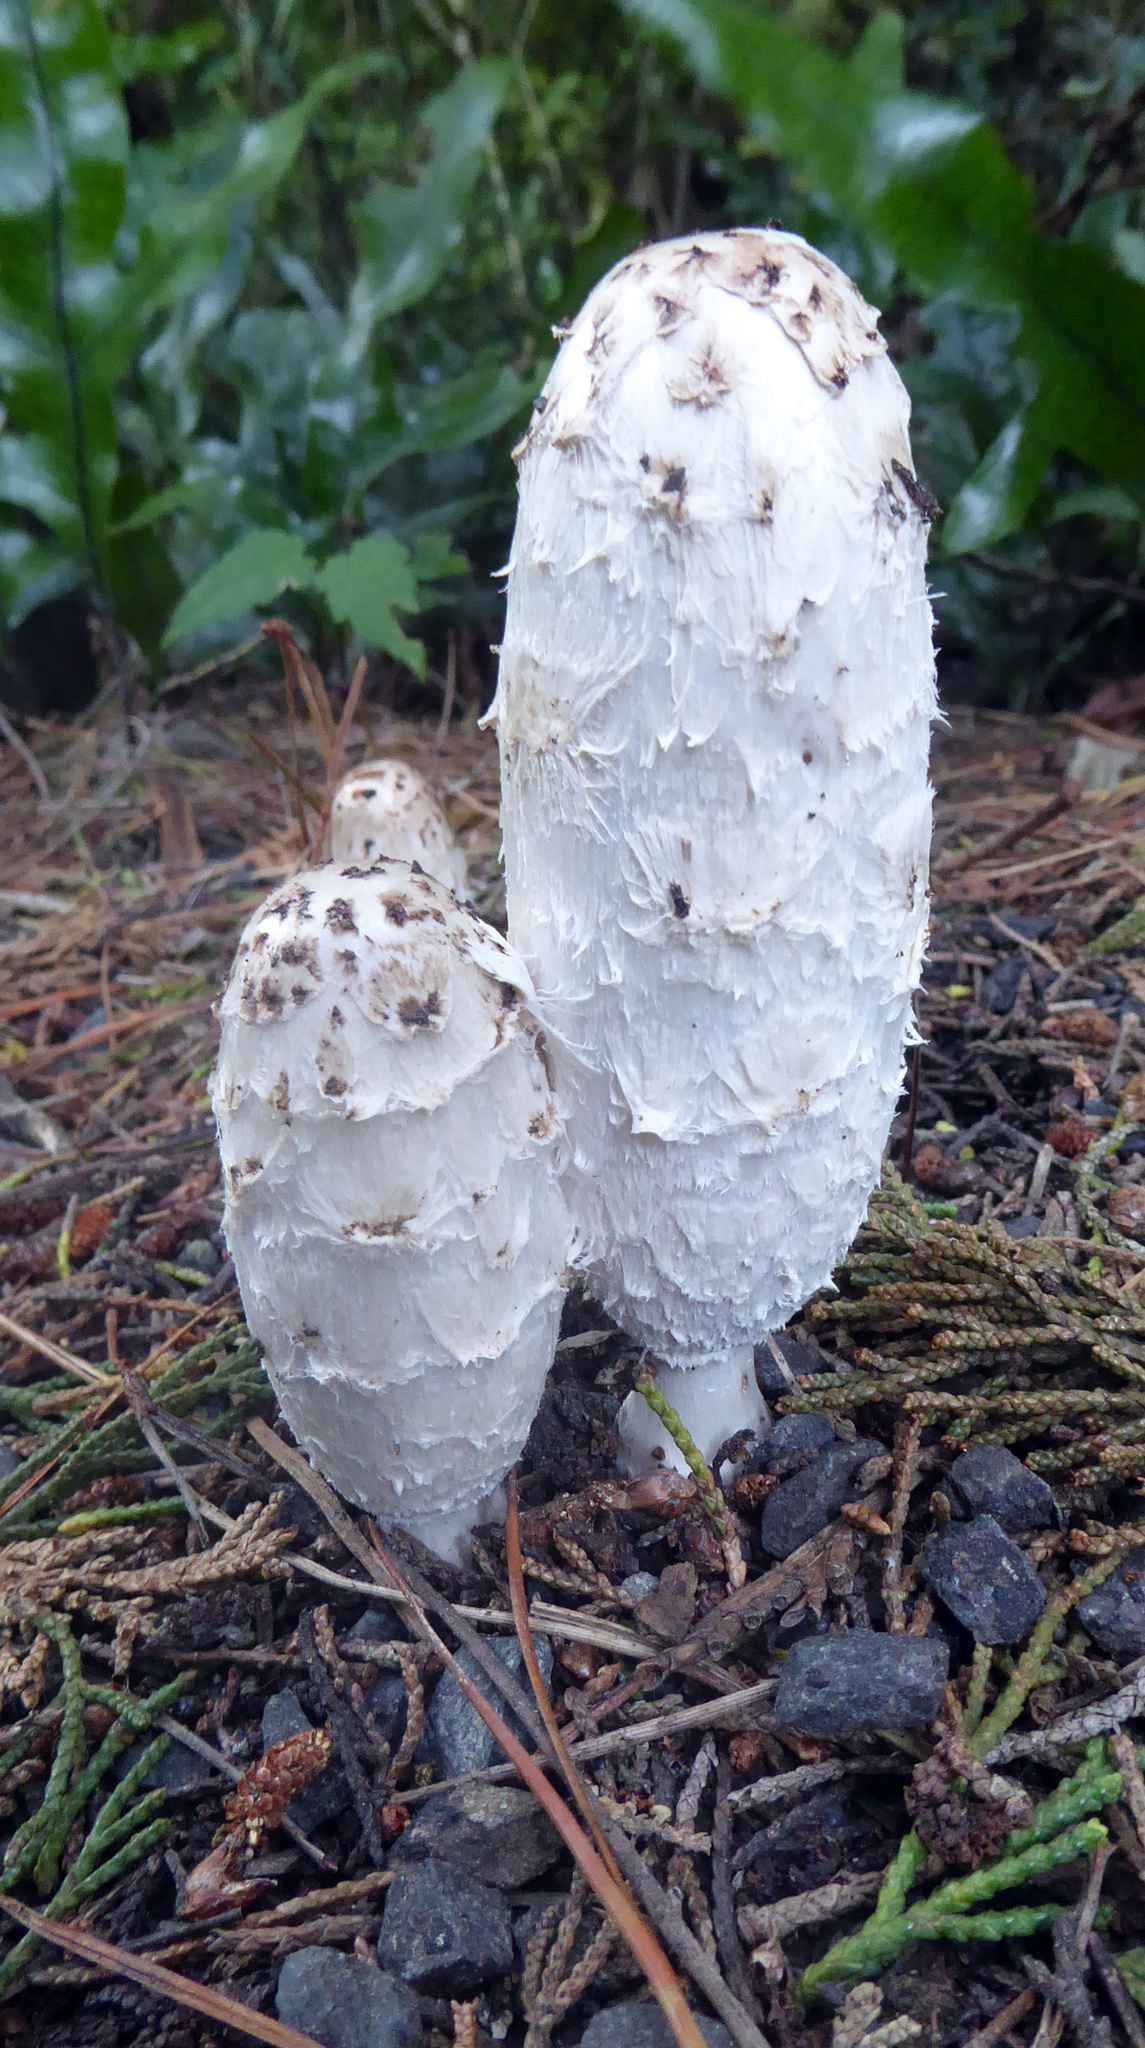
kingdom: Fungi
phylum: Basidiomycota
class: Agaricomycetes
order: Agaricales
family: Agaricaceae
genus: Coprinus
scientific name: Coprinus comatus
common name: Lawyer's wig
